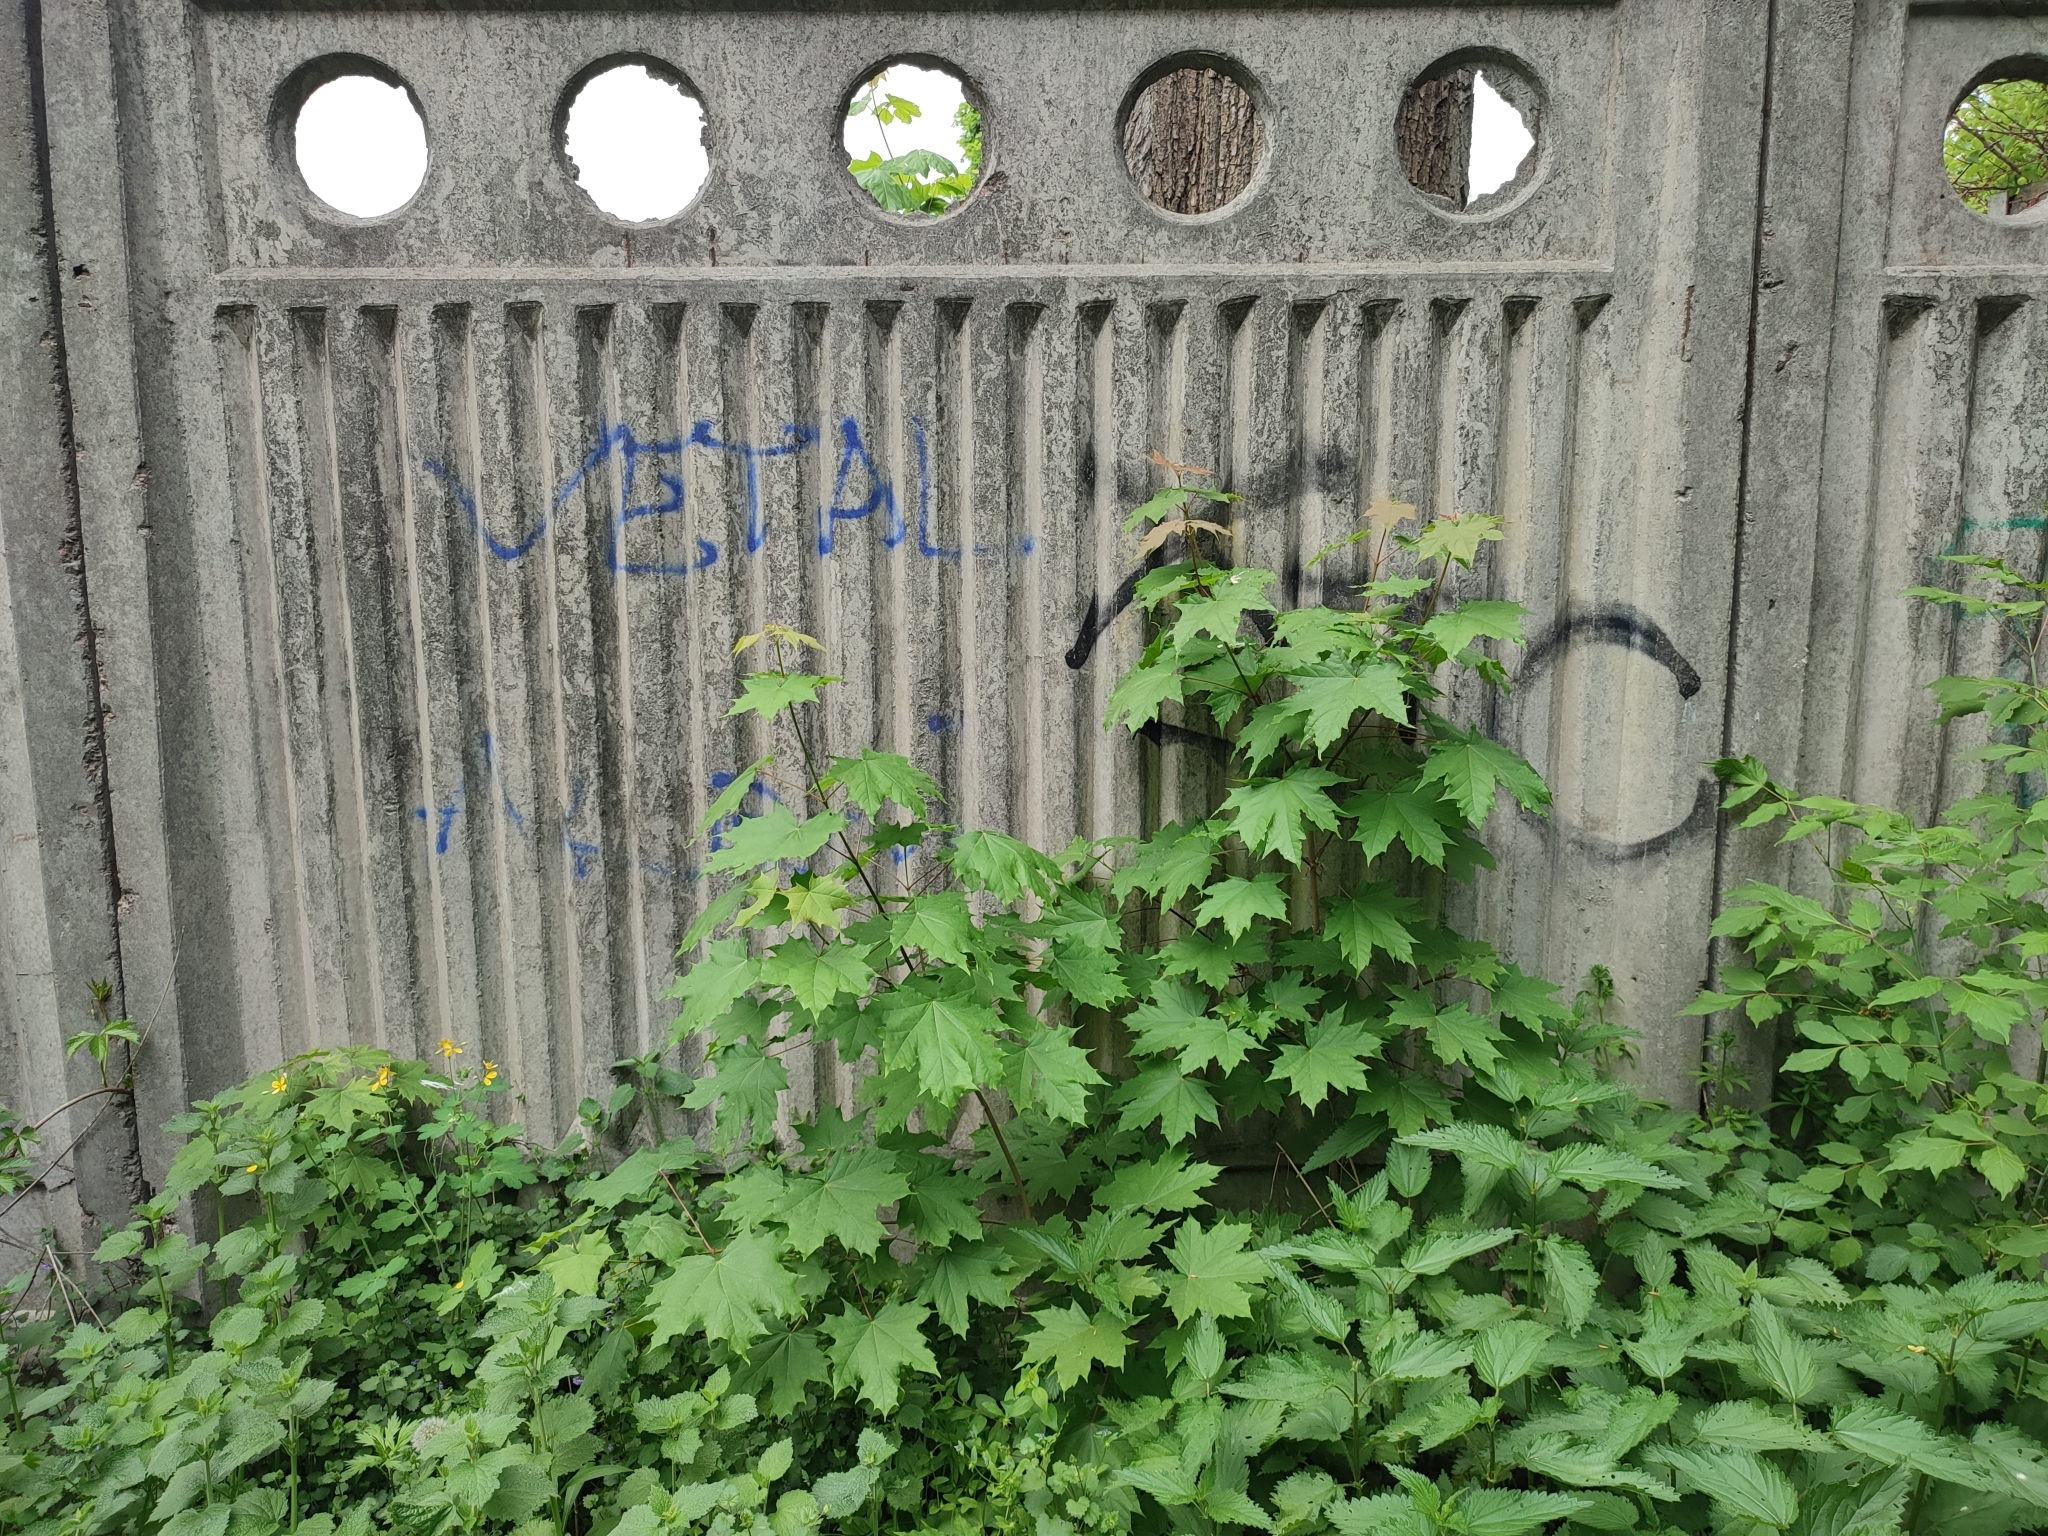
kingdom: Plantae
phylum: Tracheophyta
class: Magnoliopsida
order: Sapindales
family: Sapindaceae
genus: Acer
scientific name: Acer platanoides
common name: Norway maple
